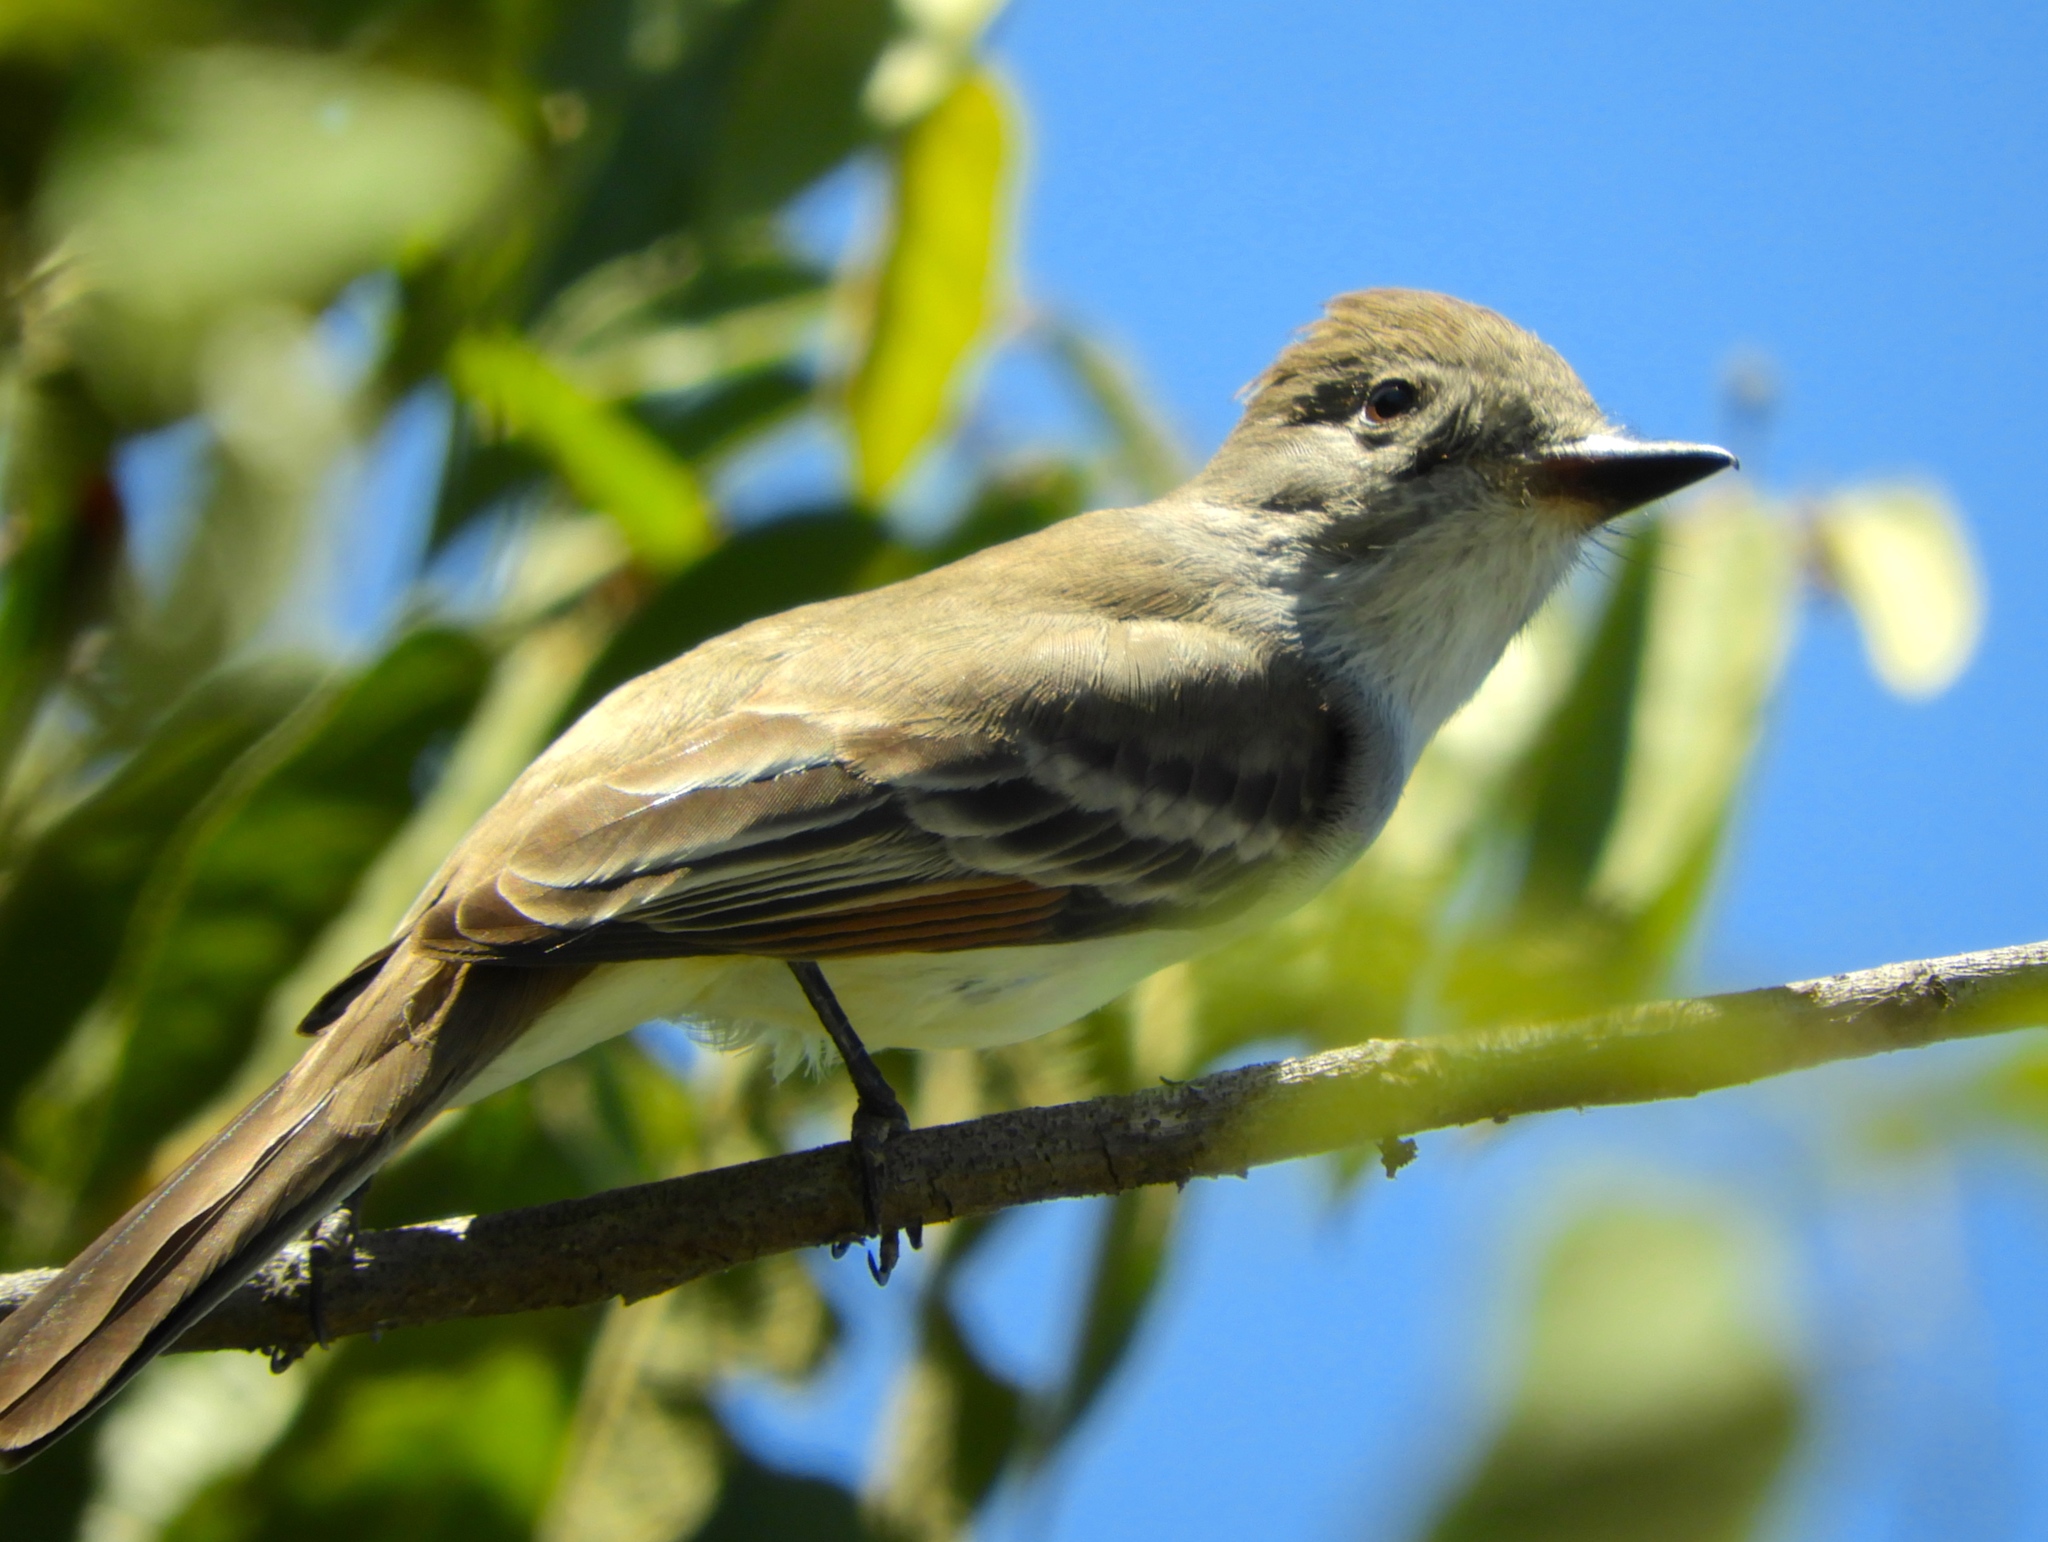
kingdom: Animalia
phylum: Chordata
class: Aves
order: Passeriformes
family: Tyrannidae
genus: Myiarchus
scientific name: Myiarchus
